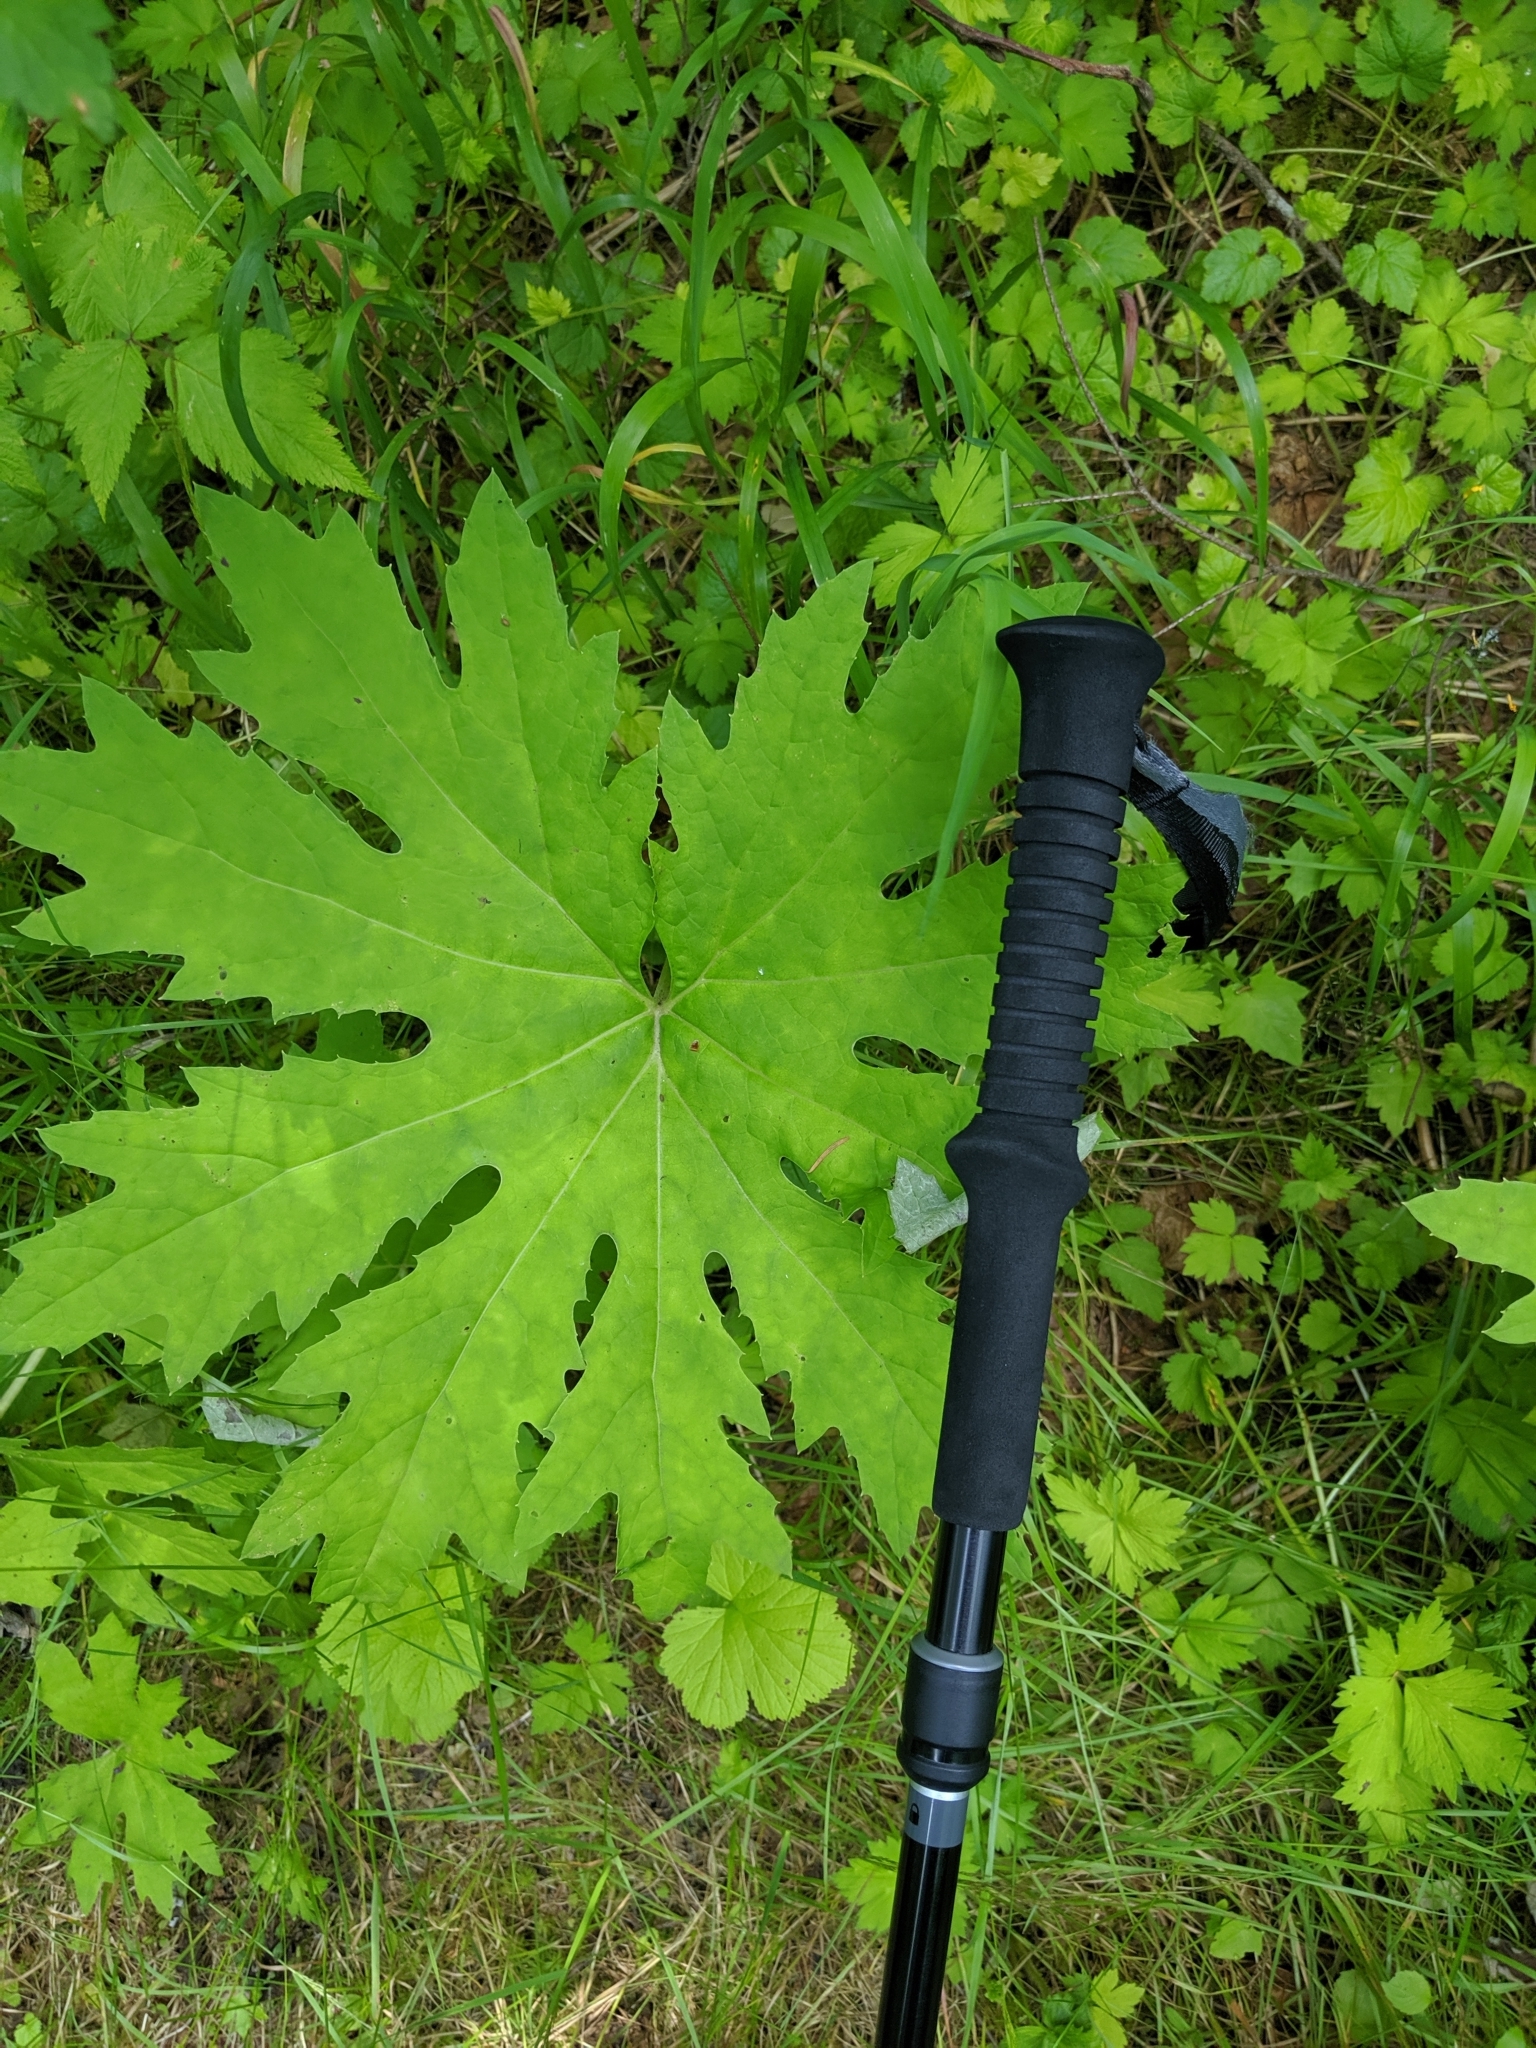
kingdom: Plantae
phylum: Tracheophyta
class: Magnoliopsida
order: Asterales
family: Asteraceae
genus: Petasites
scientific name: Petasites frigidus
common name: Arctic butterbur
